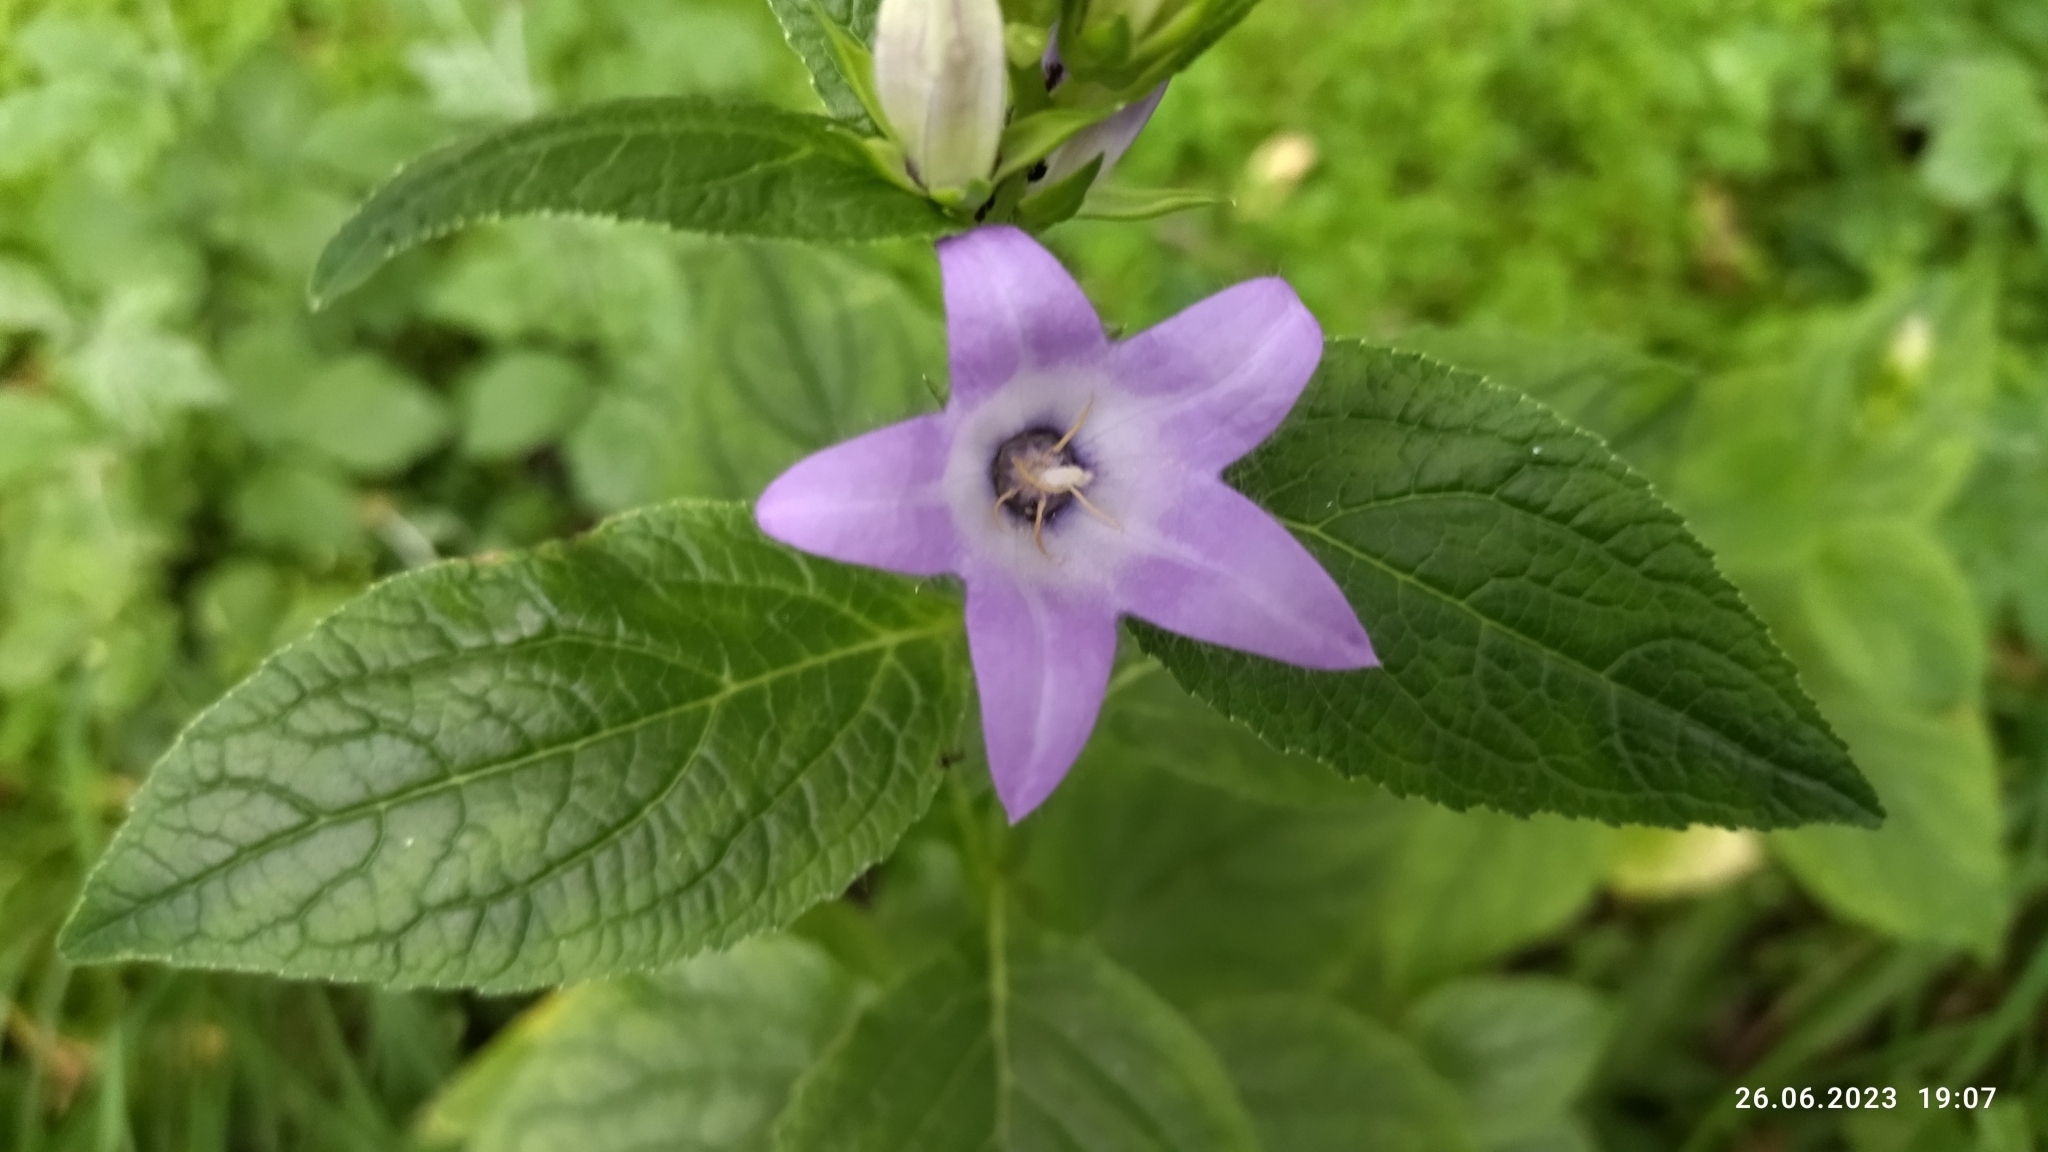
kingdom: Plantae
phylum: Tracheophyta
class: Magnoliopsida
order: Asterales
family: Campanulaceae
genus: Campanula
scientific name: Campanula latifolia
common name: Giant bellflower
